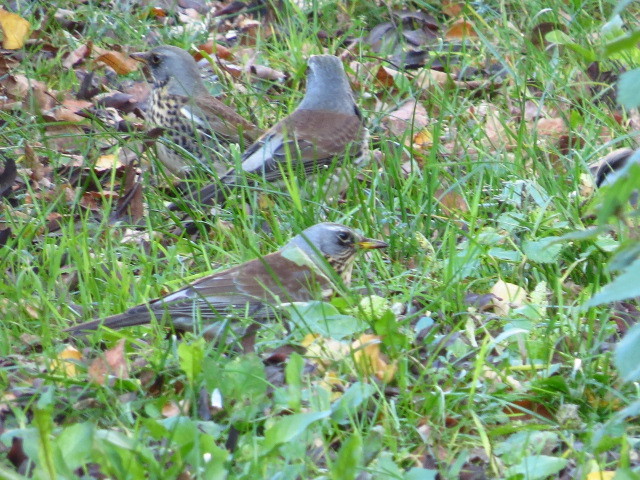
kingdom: Animalia
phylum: Chordata
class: Aves
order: Passeriformes
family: Turdidae
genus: Turdus
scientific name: Turdus pilaris
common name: Fieldfare
